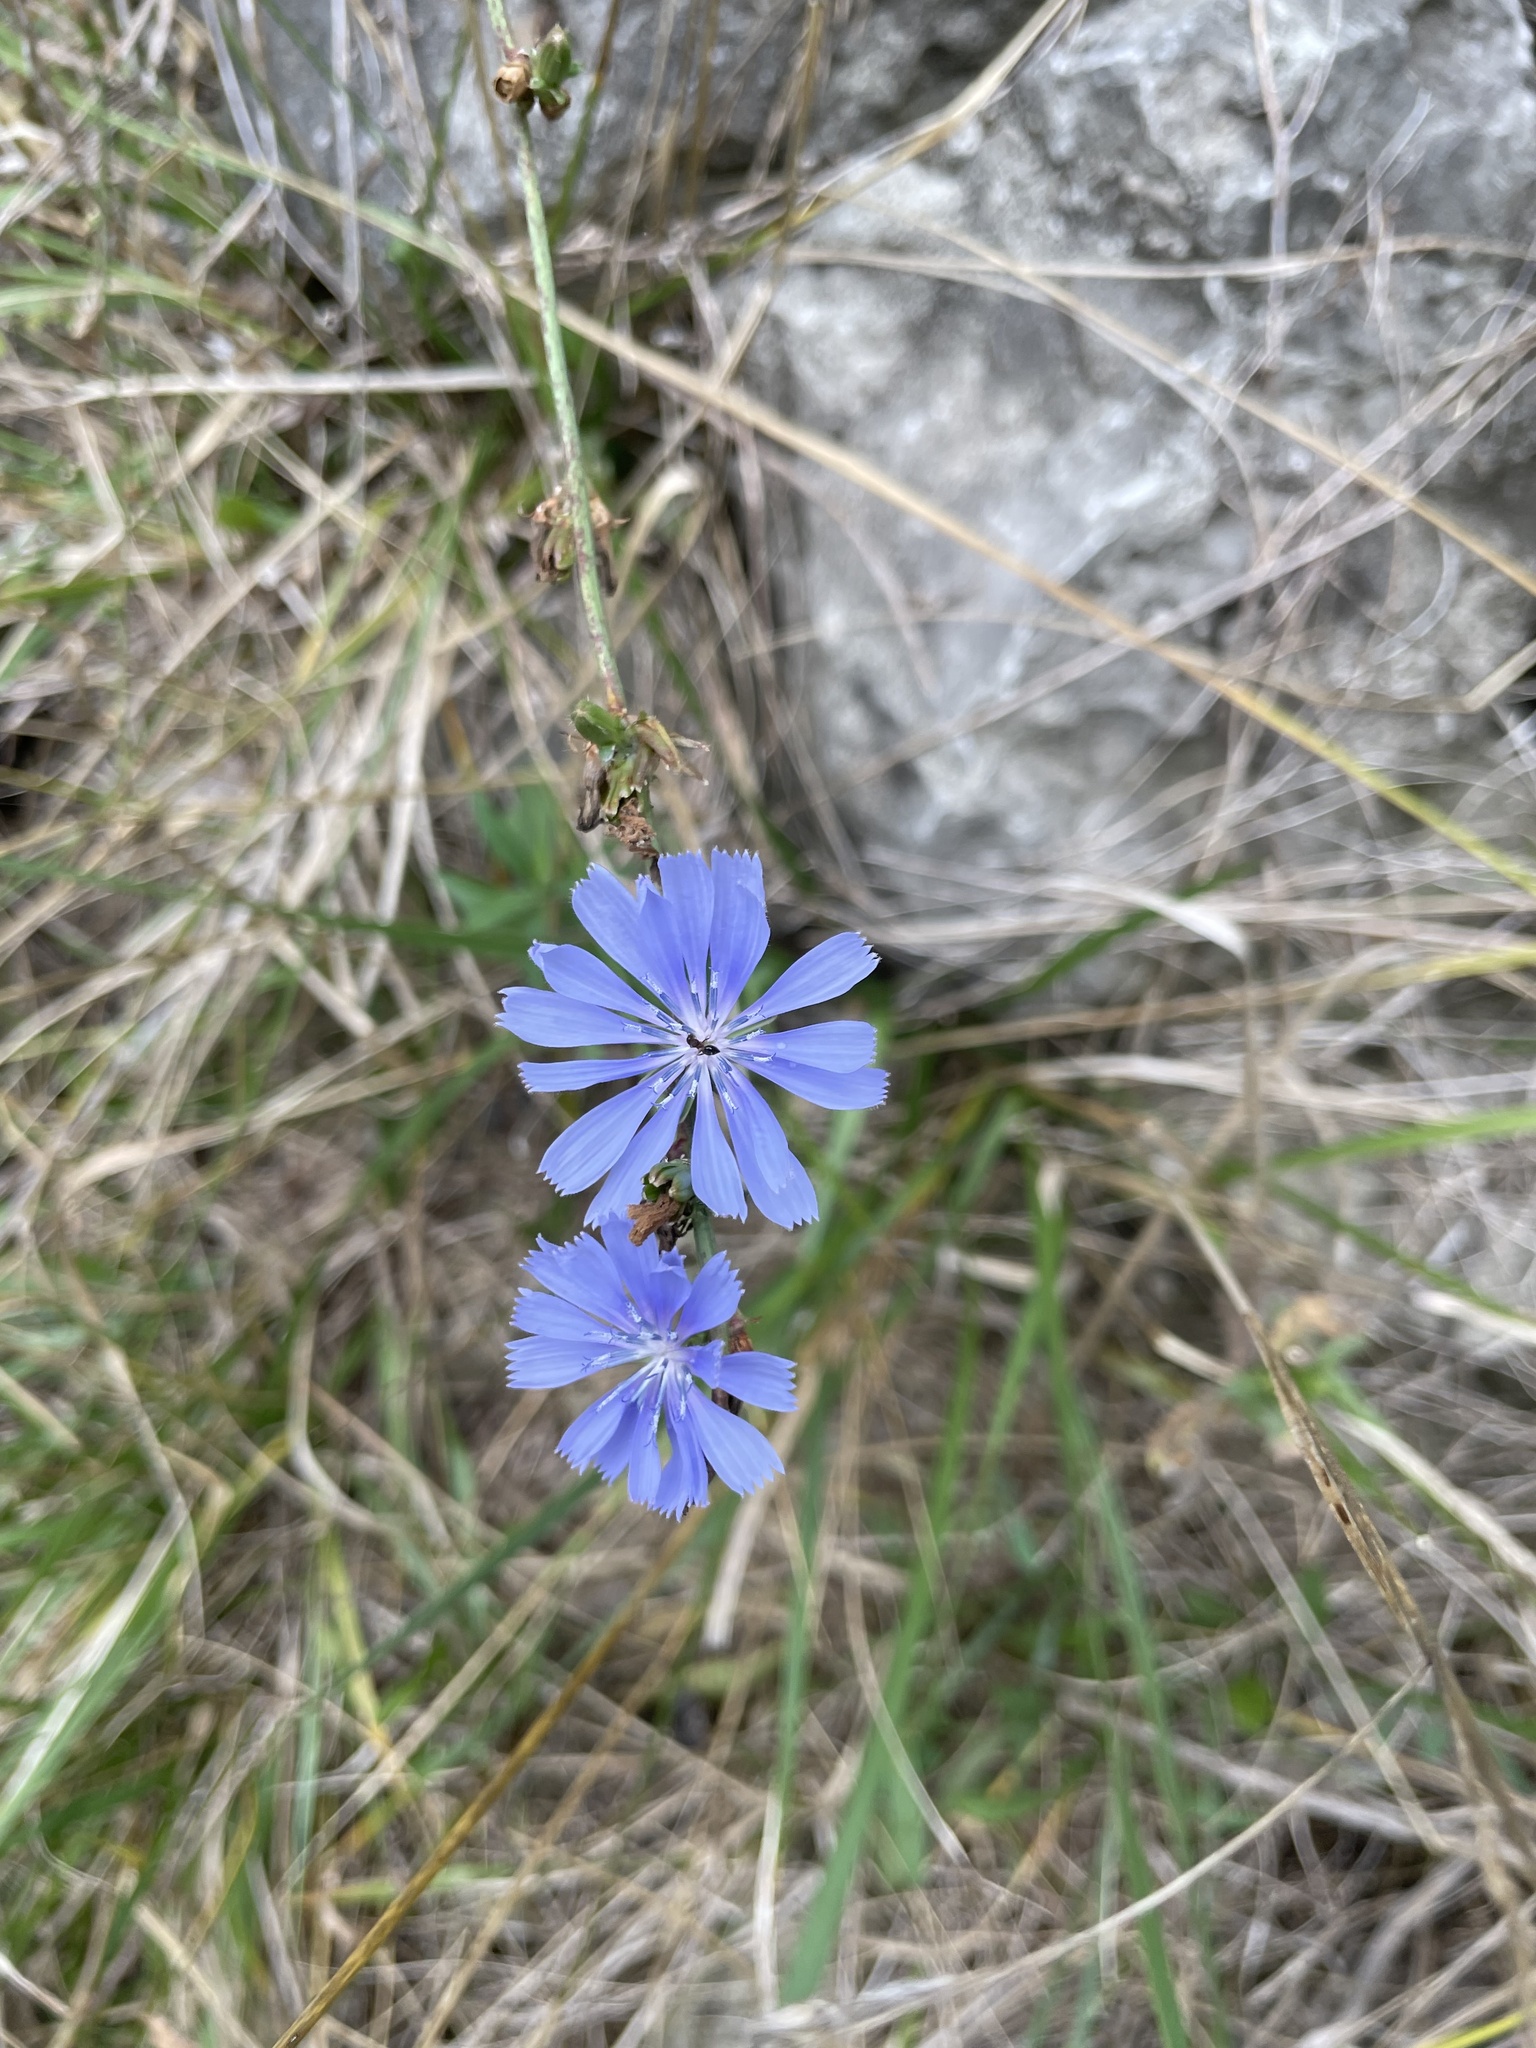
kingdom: Plantae
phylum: Tracheophyta
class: Magnoliopsida
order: Asterales
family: Asteraceae
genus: Cichorium
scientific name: Cichorium intybus
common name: Chicory
